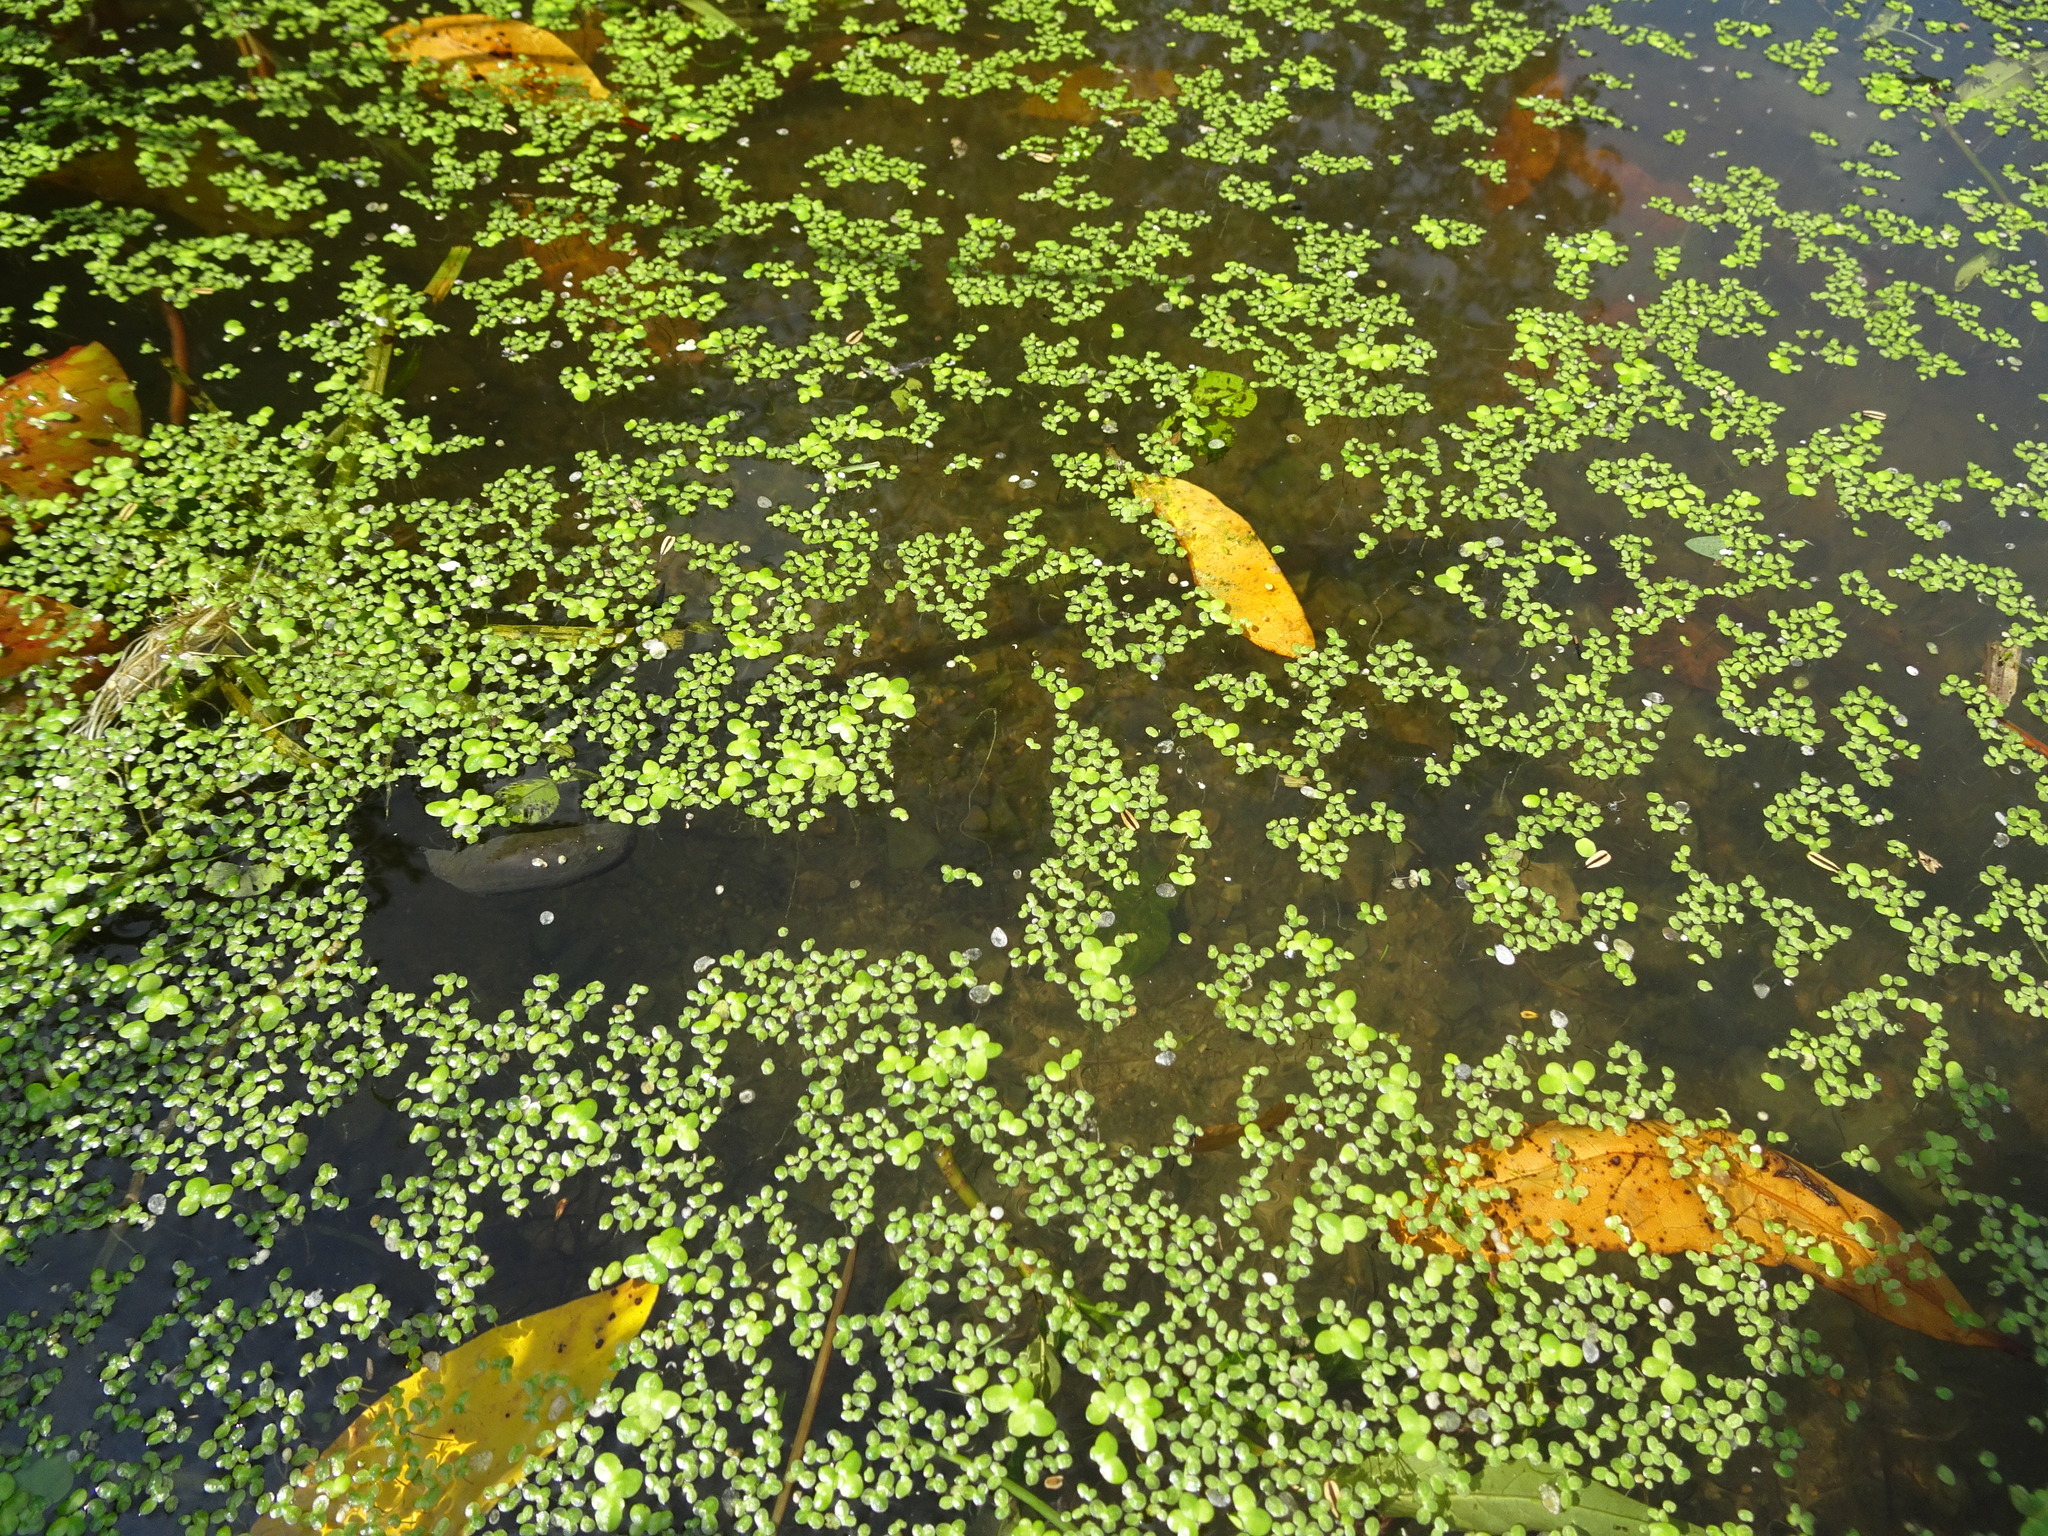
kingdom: Plantae
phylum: Tracheophyta
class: Liliopsida
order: Alismatales
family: Araceae
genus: Lemna
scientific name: Lemna minor
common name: Common duckweed
